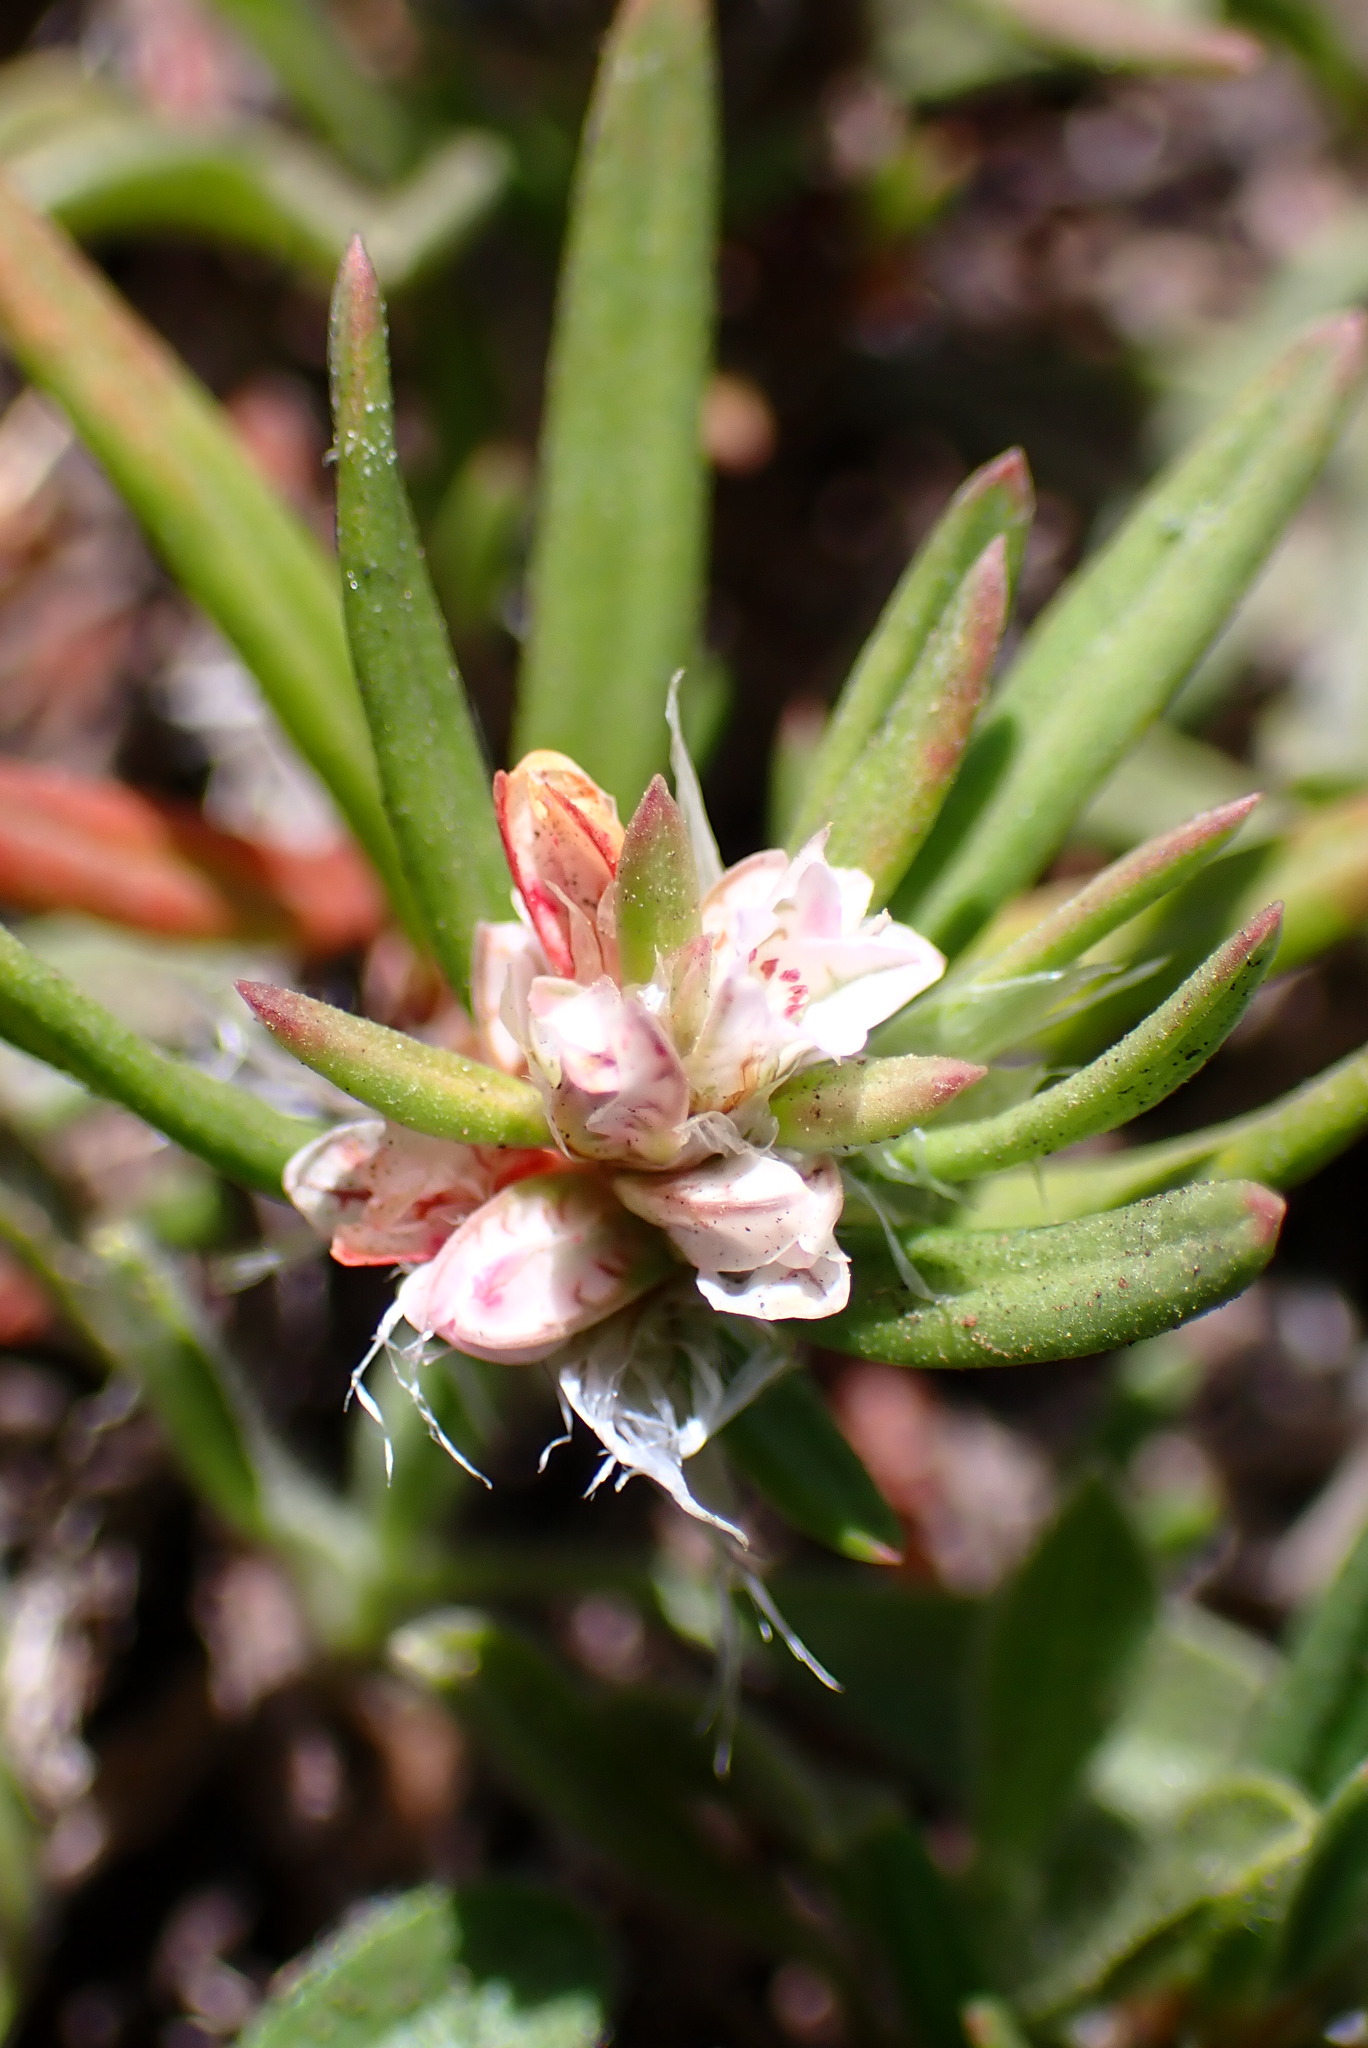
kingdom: Plantae
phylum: Tracheophyta
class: Magnoliopsida
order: Caryophyllales
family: Polygonaceae
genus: Polygonum
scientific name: Polygonum paronychia
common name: Dune knotweed
